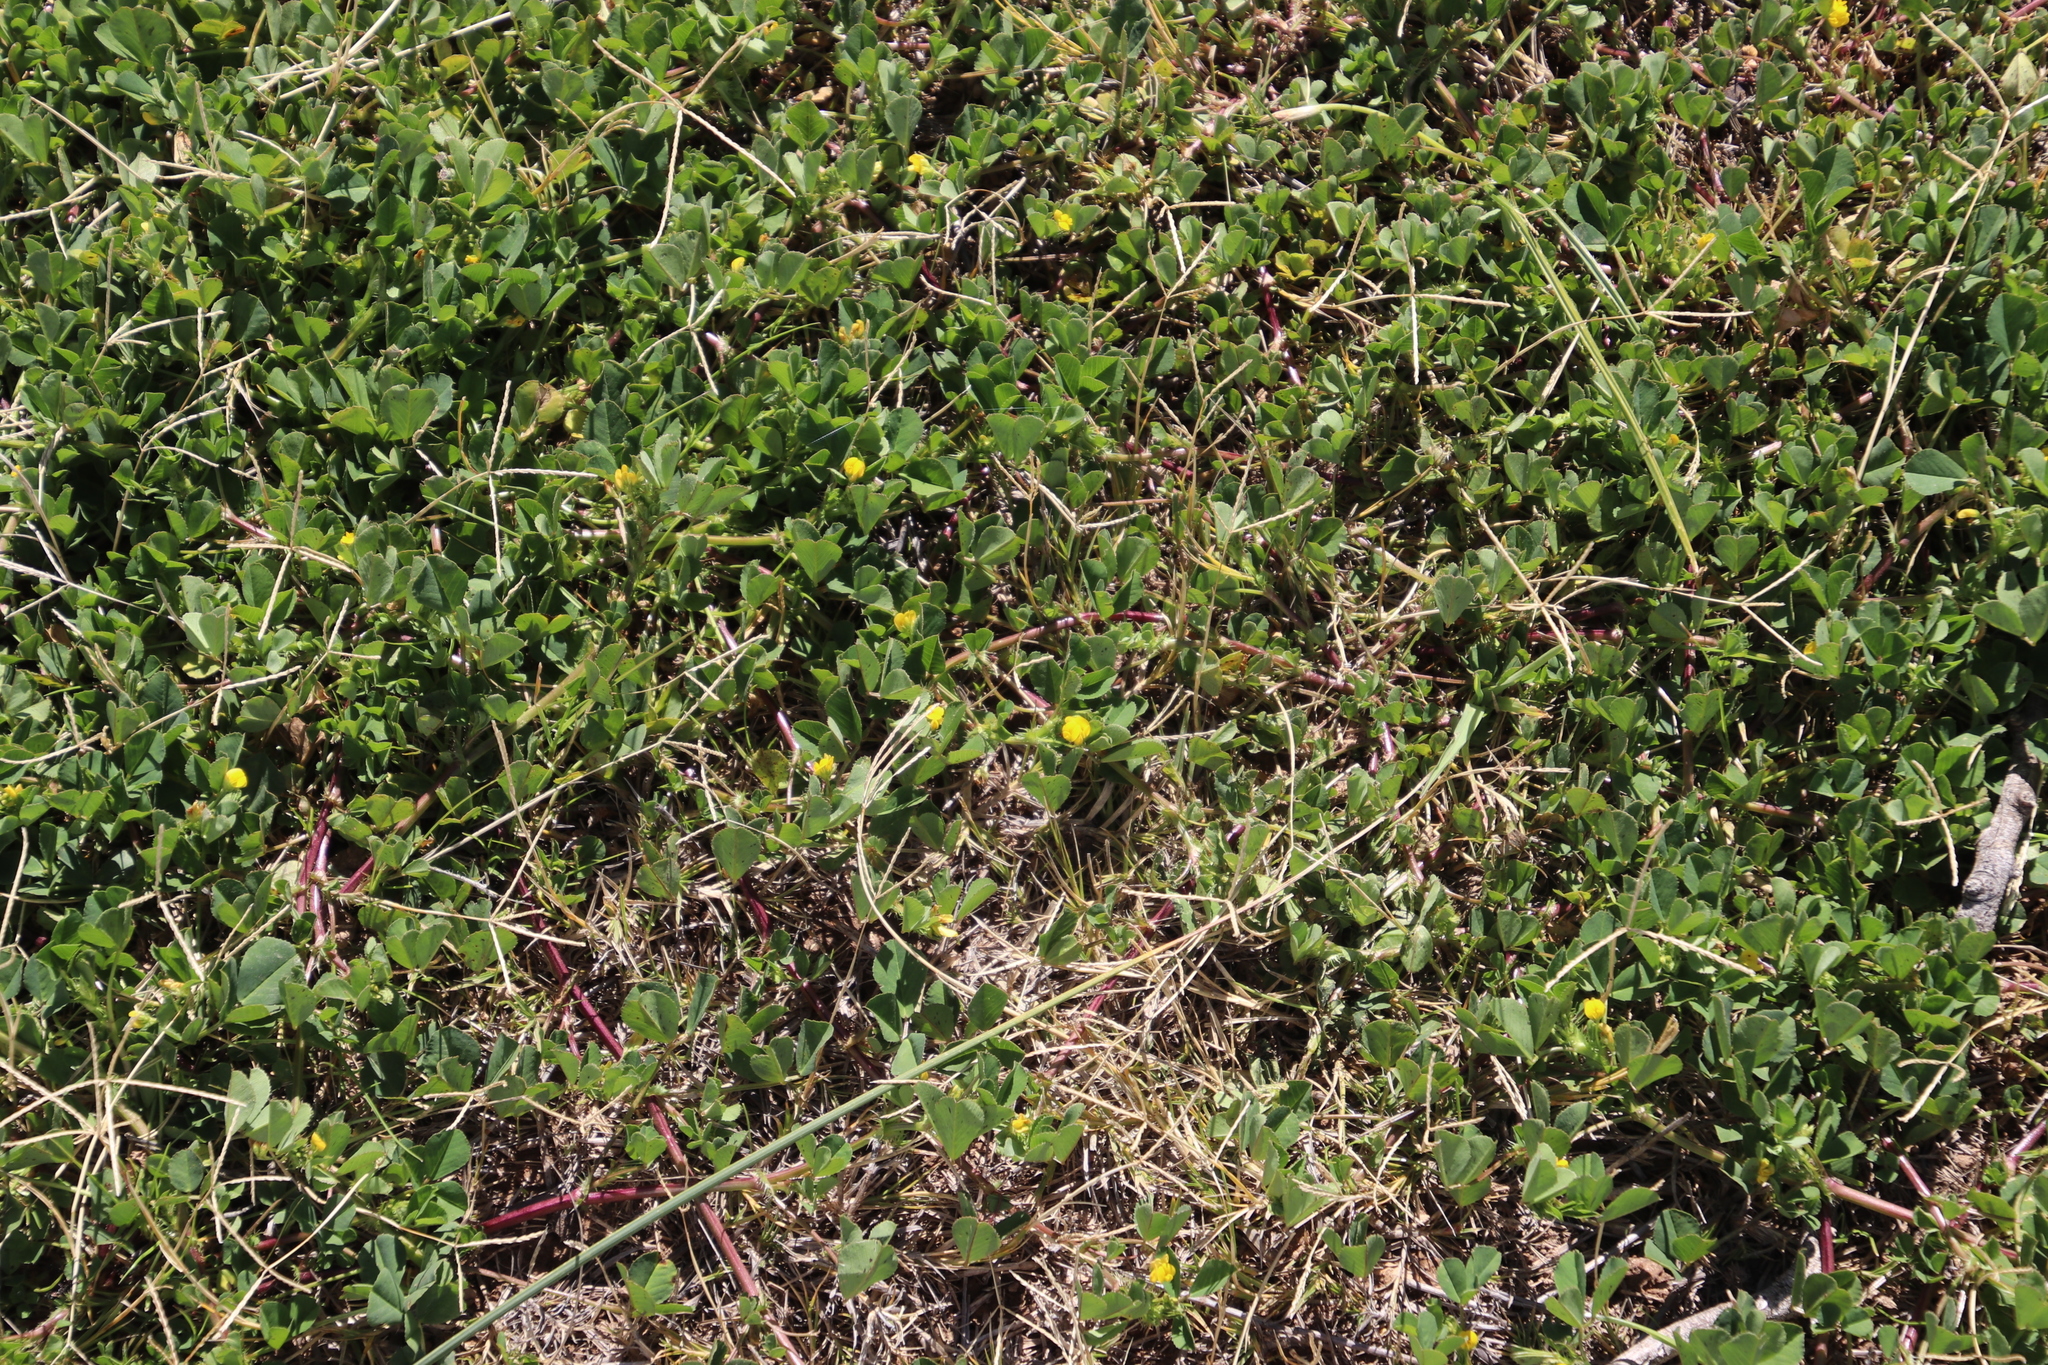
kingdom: Plantae
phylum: Tracheophyta
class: Magnoliopsida
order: Fabales
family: Fabaceae
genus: Medicago
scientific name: Medicago polymorpha
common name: Burclover
